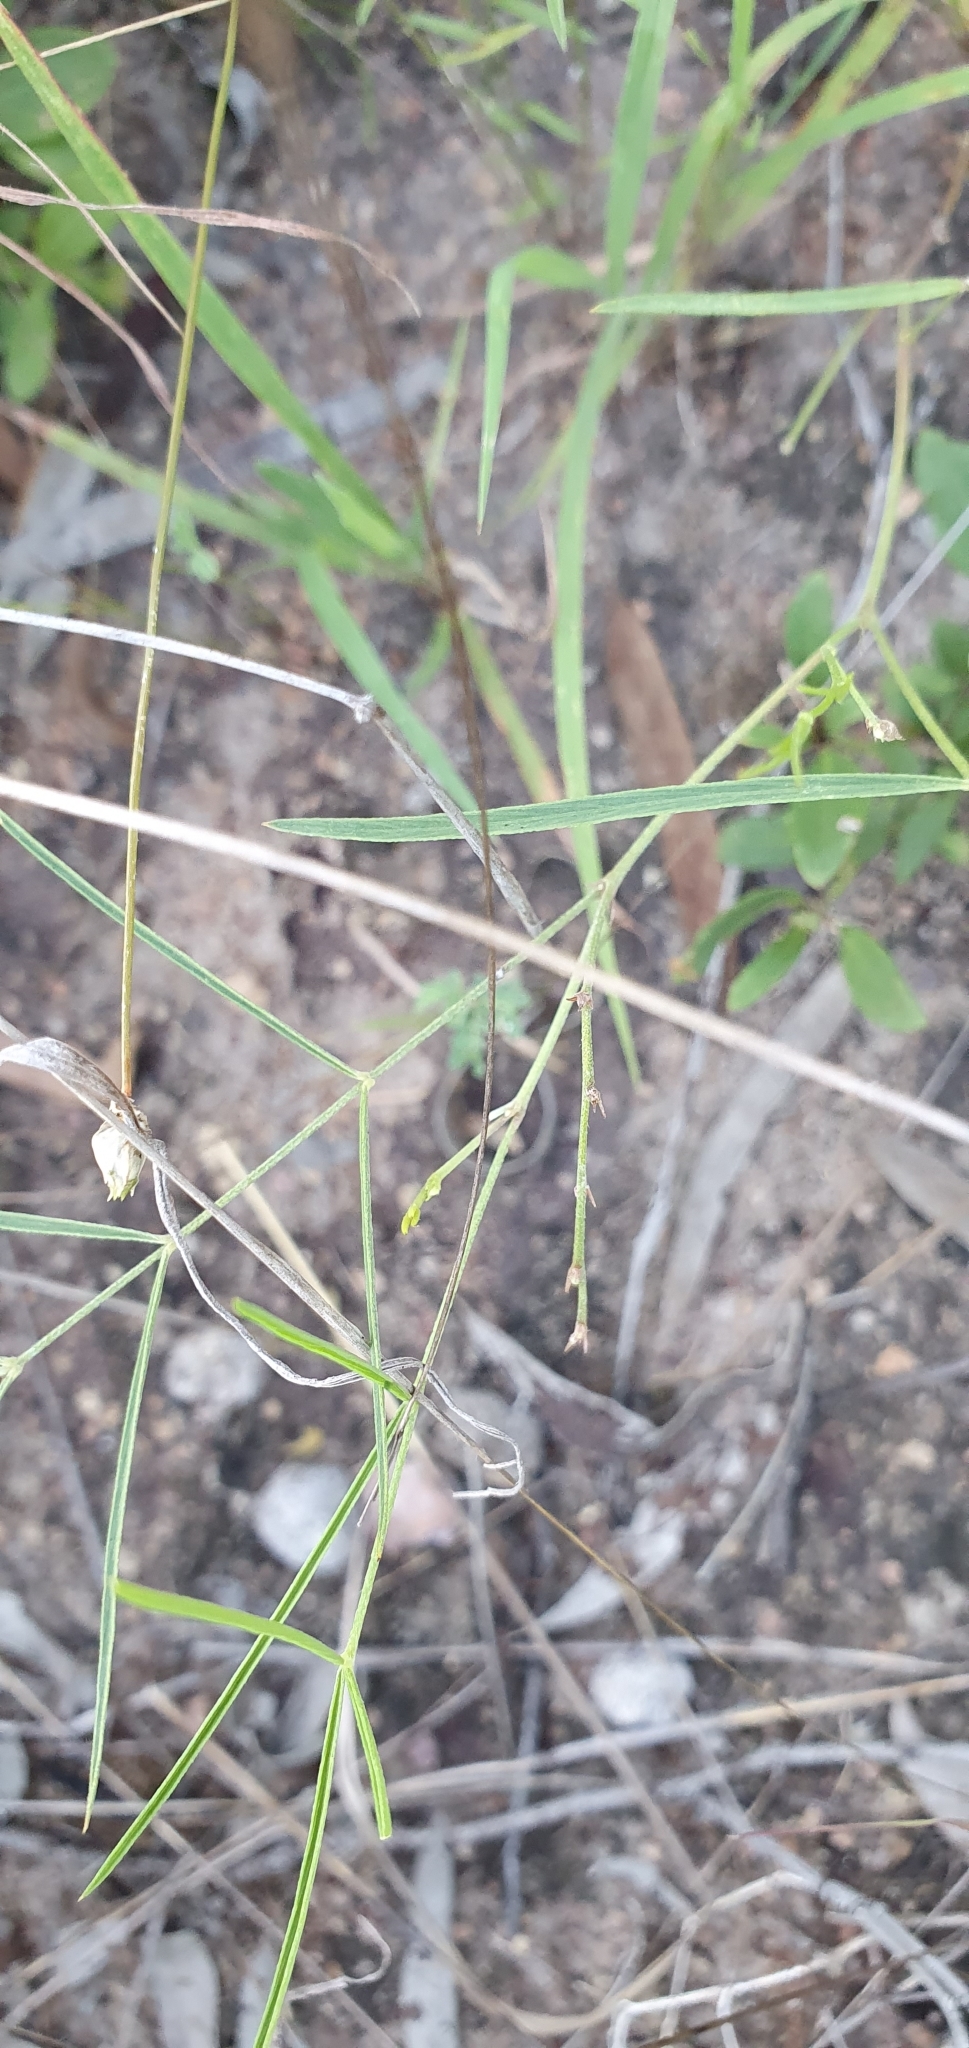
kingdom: Plantae
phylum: Tracheophyta
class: Magnoliopsida
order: Solanales
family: Convolvulaceae
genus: Evolvulus
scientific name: Evolvulus alsinoides
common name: Slender dwarf morning-glory
